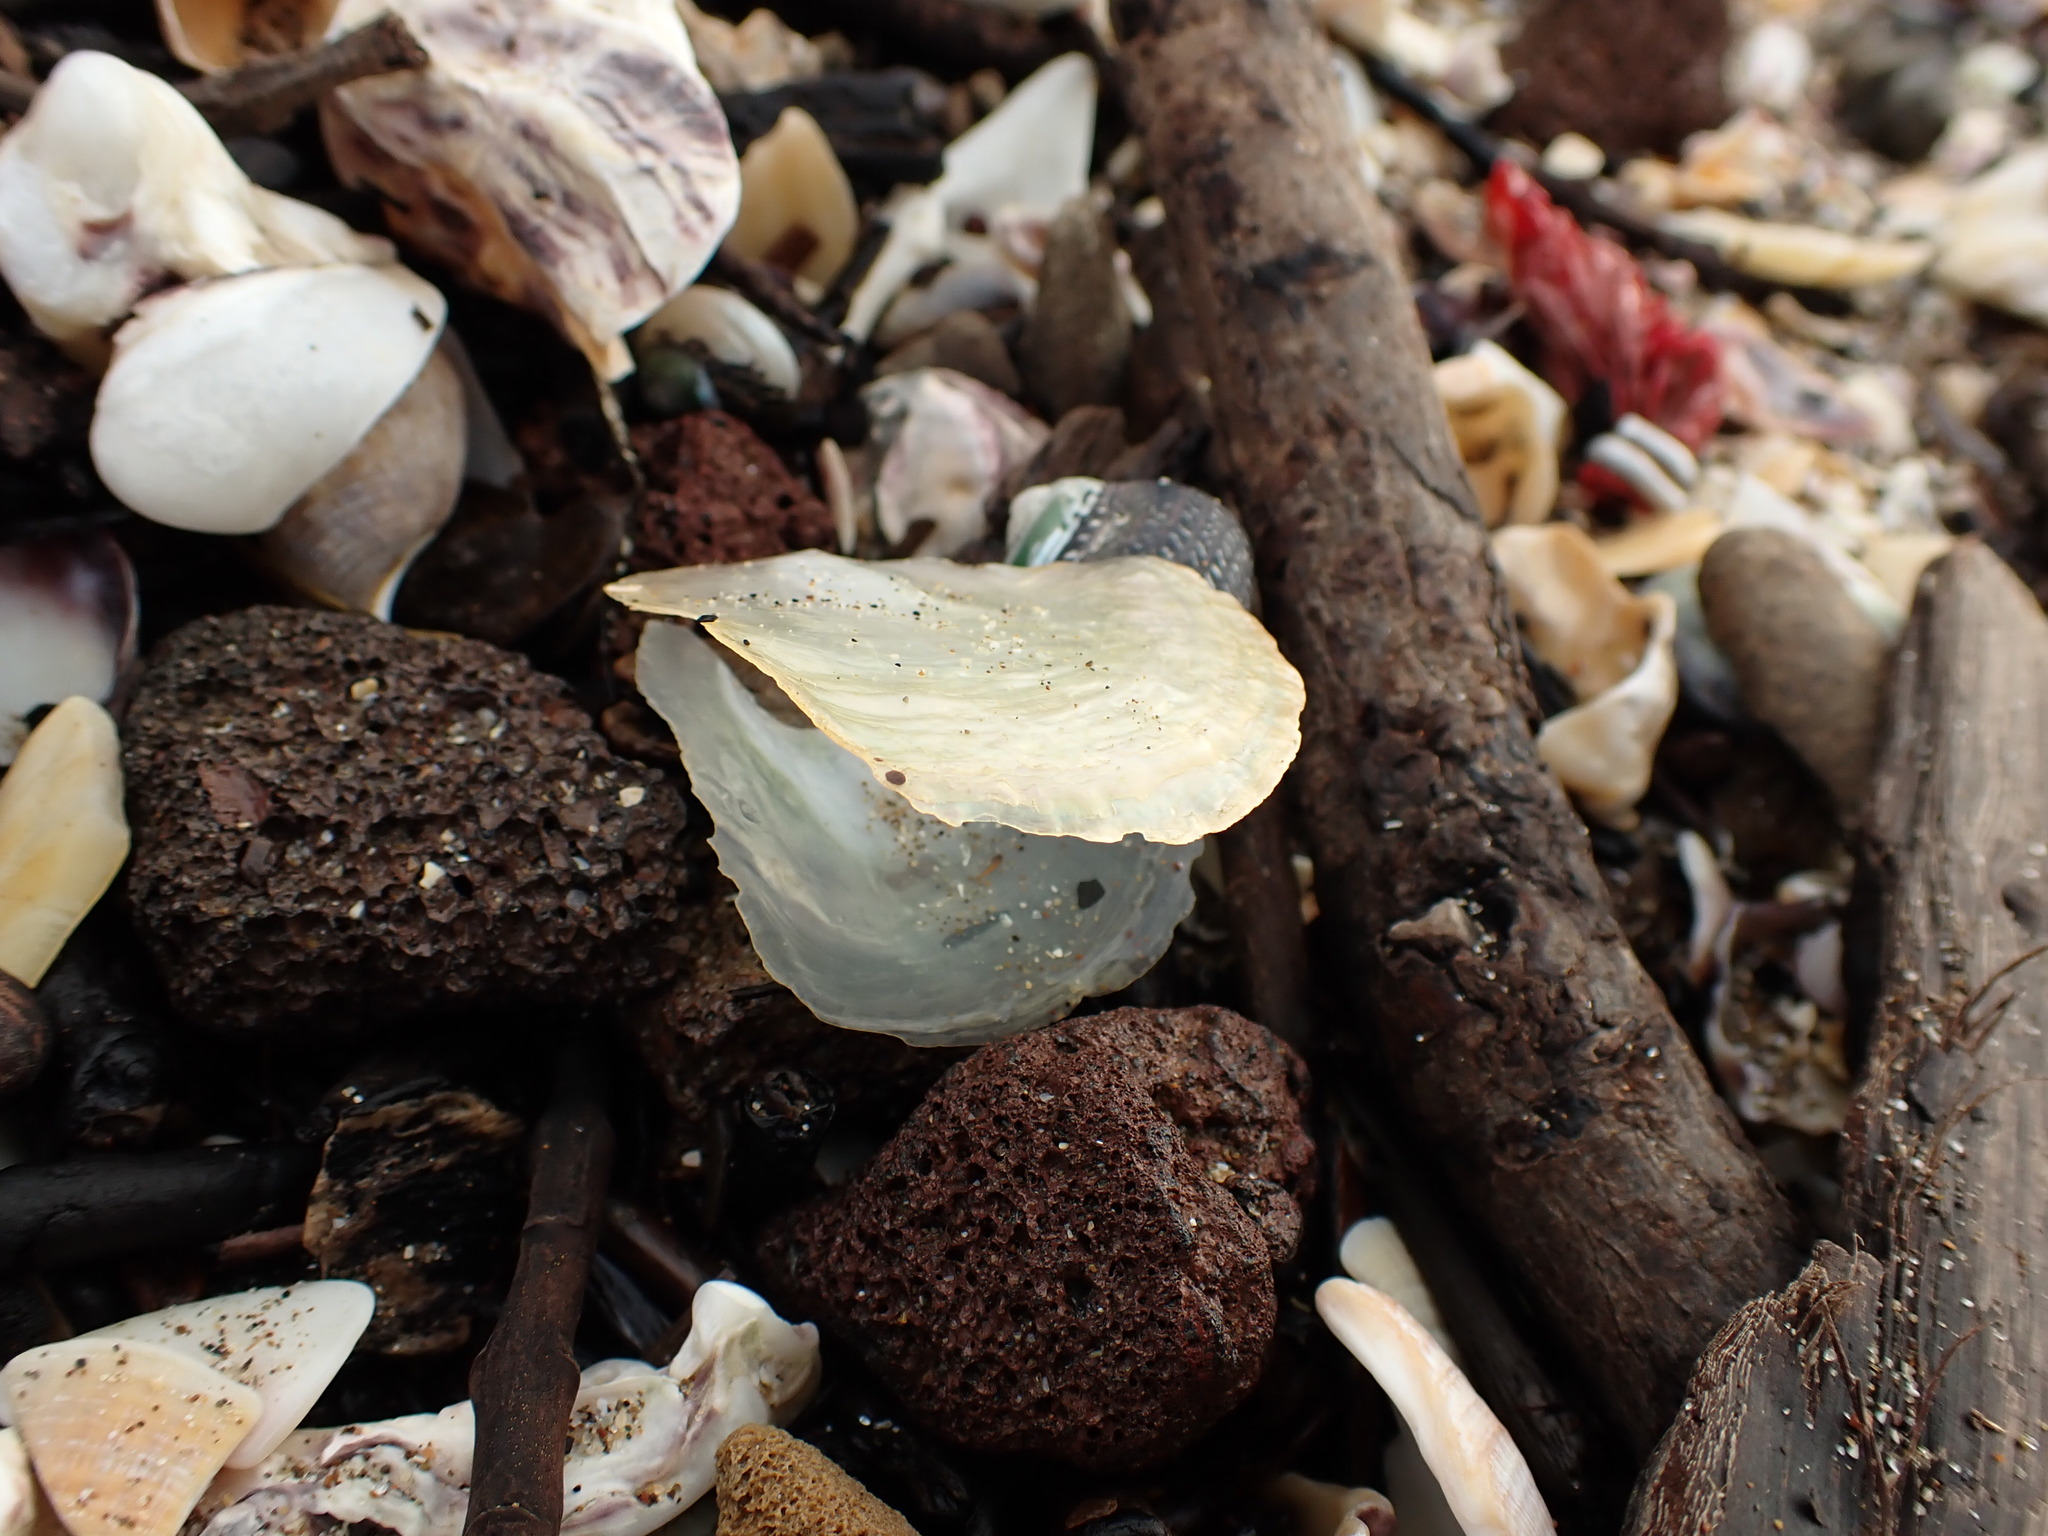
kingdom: Animalia
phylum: Mollusca
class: Bivalvia
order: Pectinida
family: Anomiidae
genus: Anomia
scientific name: Anomia trigonopsis
